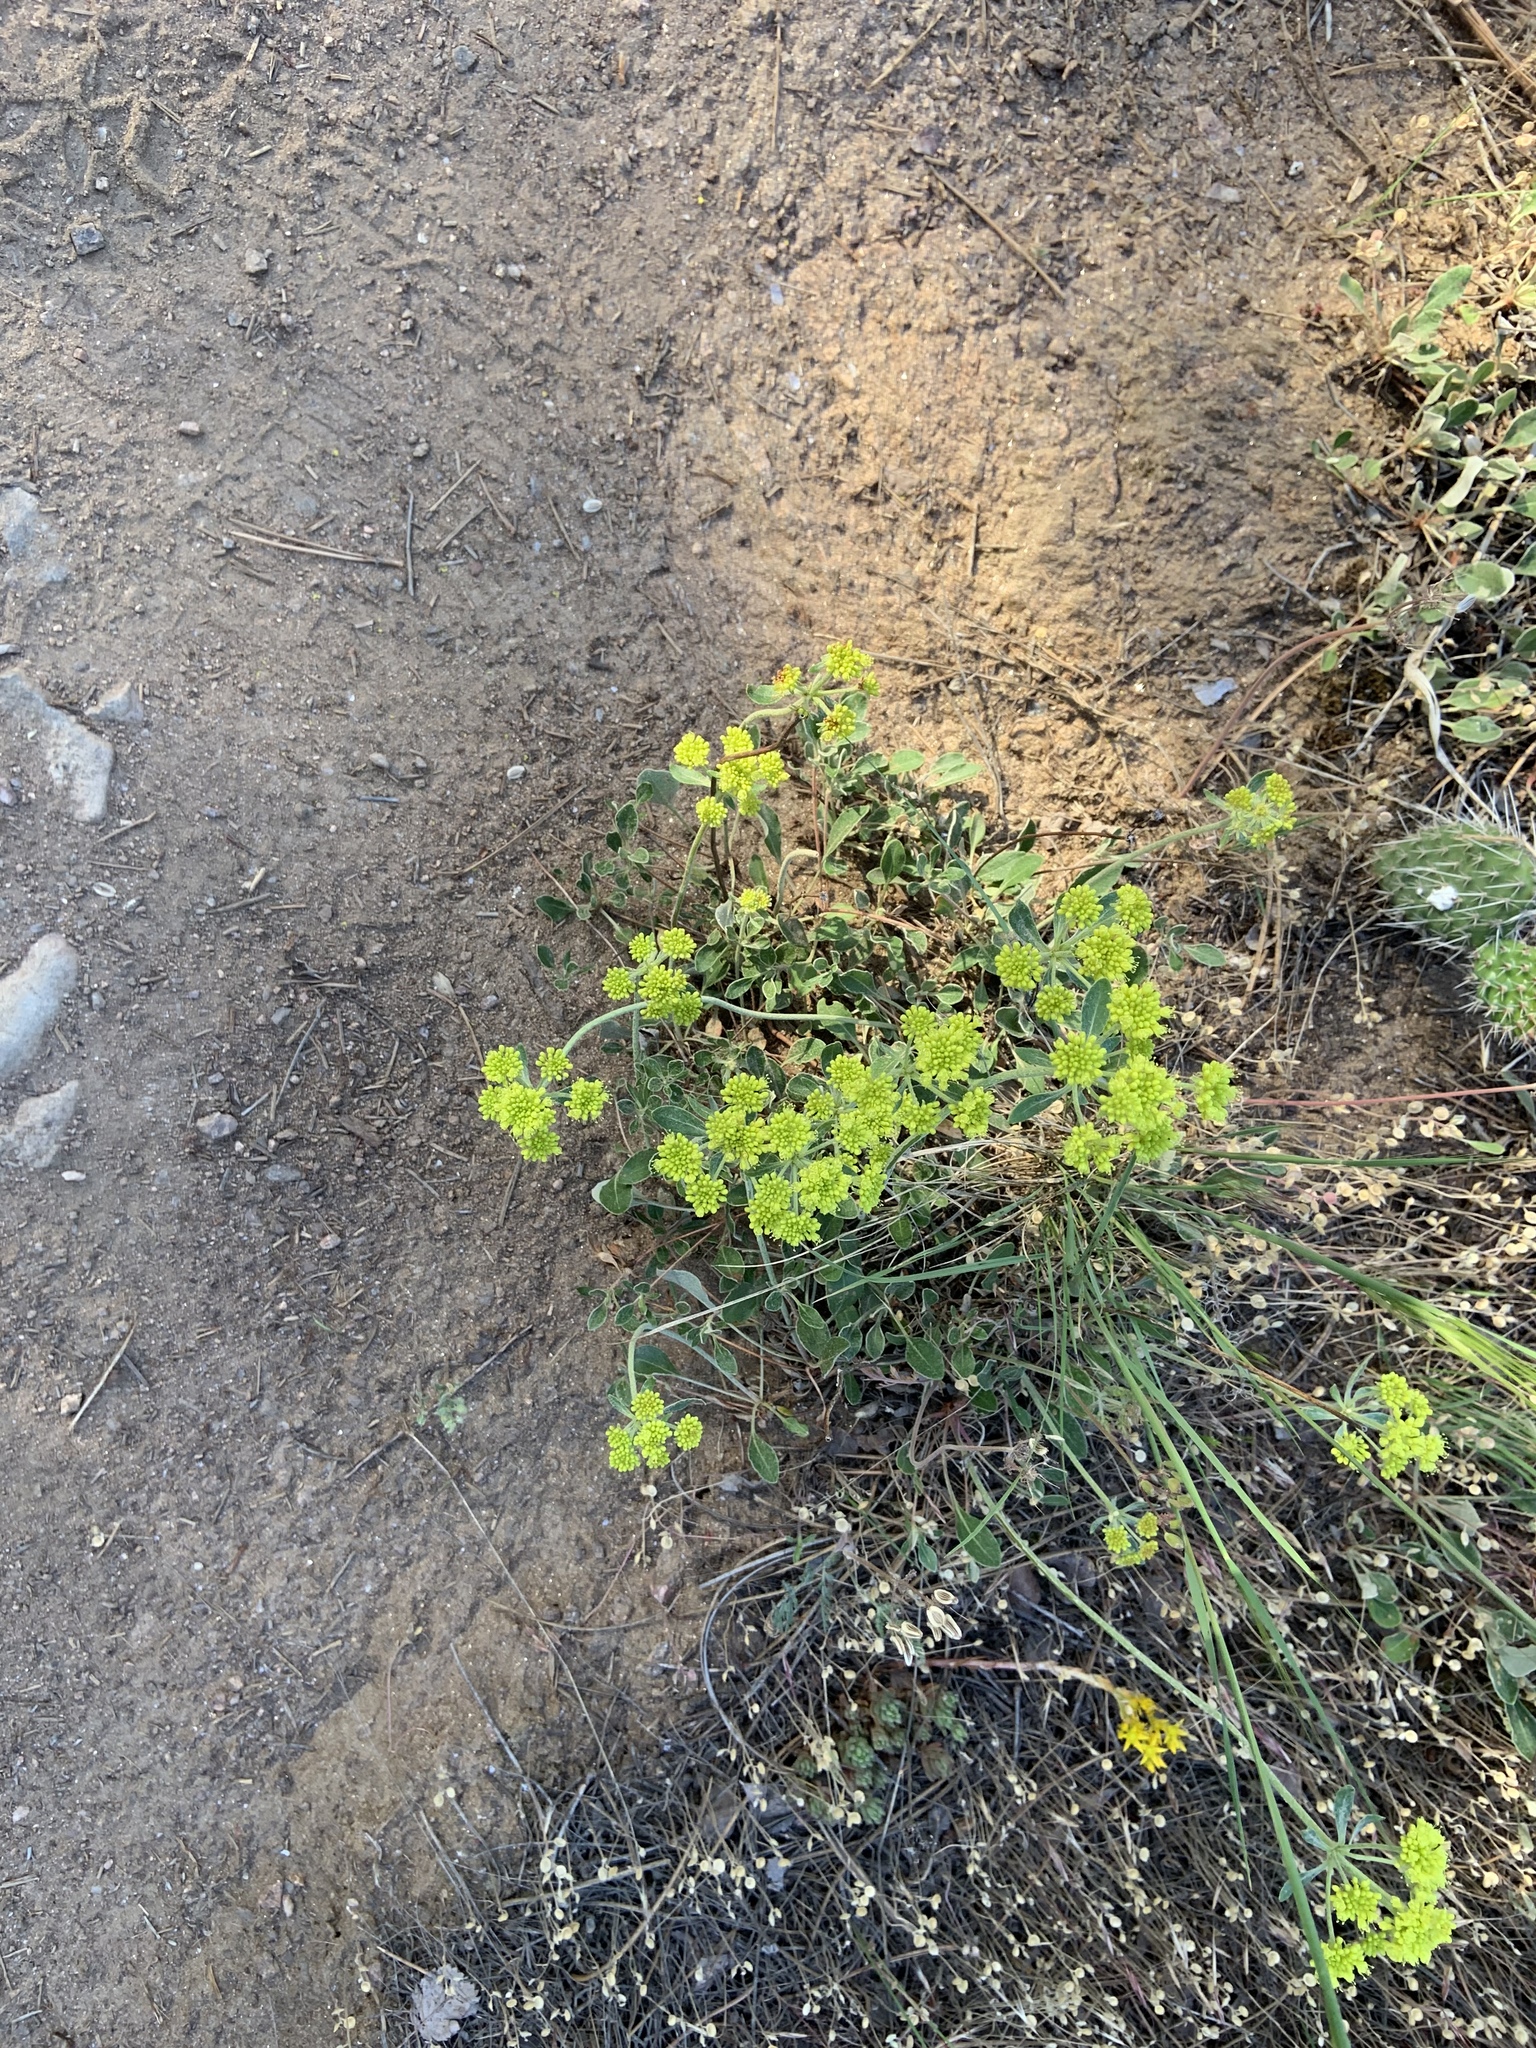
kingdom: Plantae
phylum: Tracheophyta
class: Magnoliopsida
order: Caryophyllales
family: Polygonaceae
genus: Eriogonum
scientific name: Eriogonum umbellatum
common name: Sulfur-buckwheat
